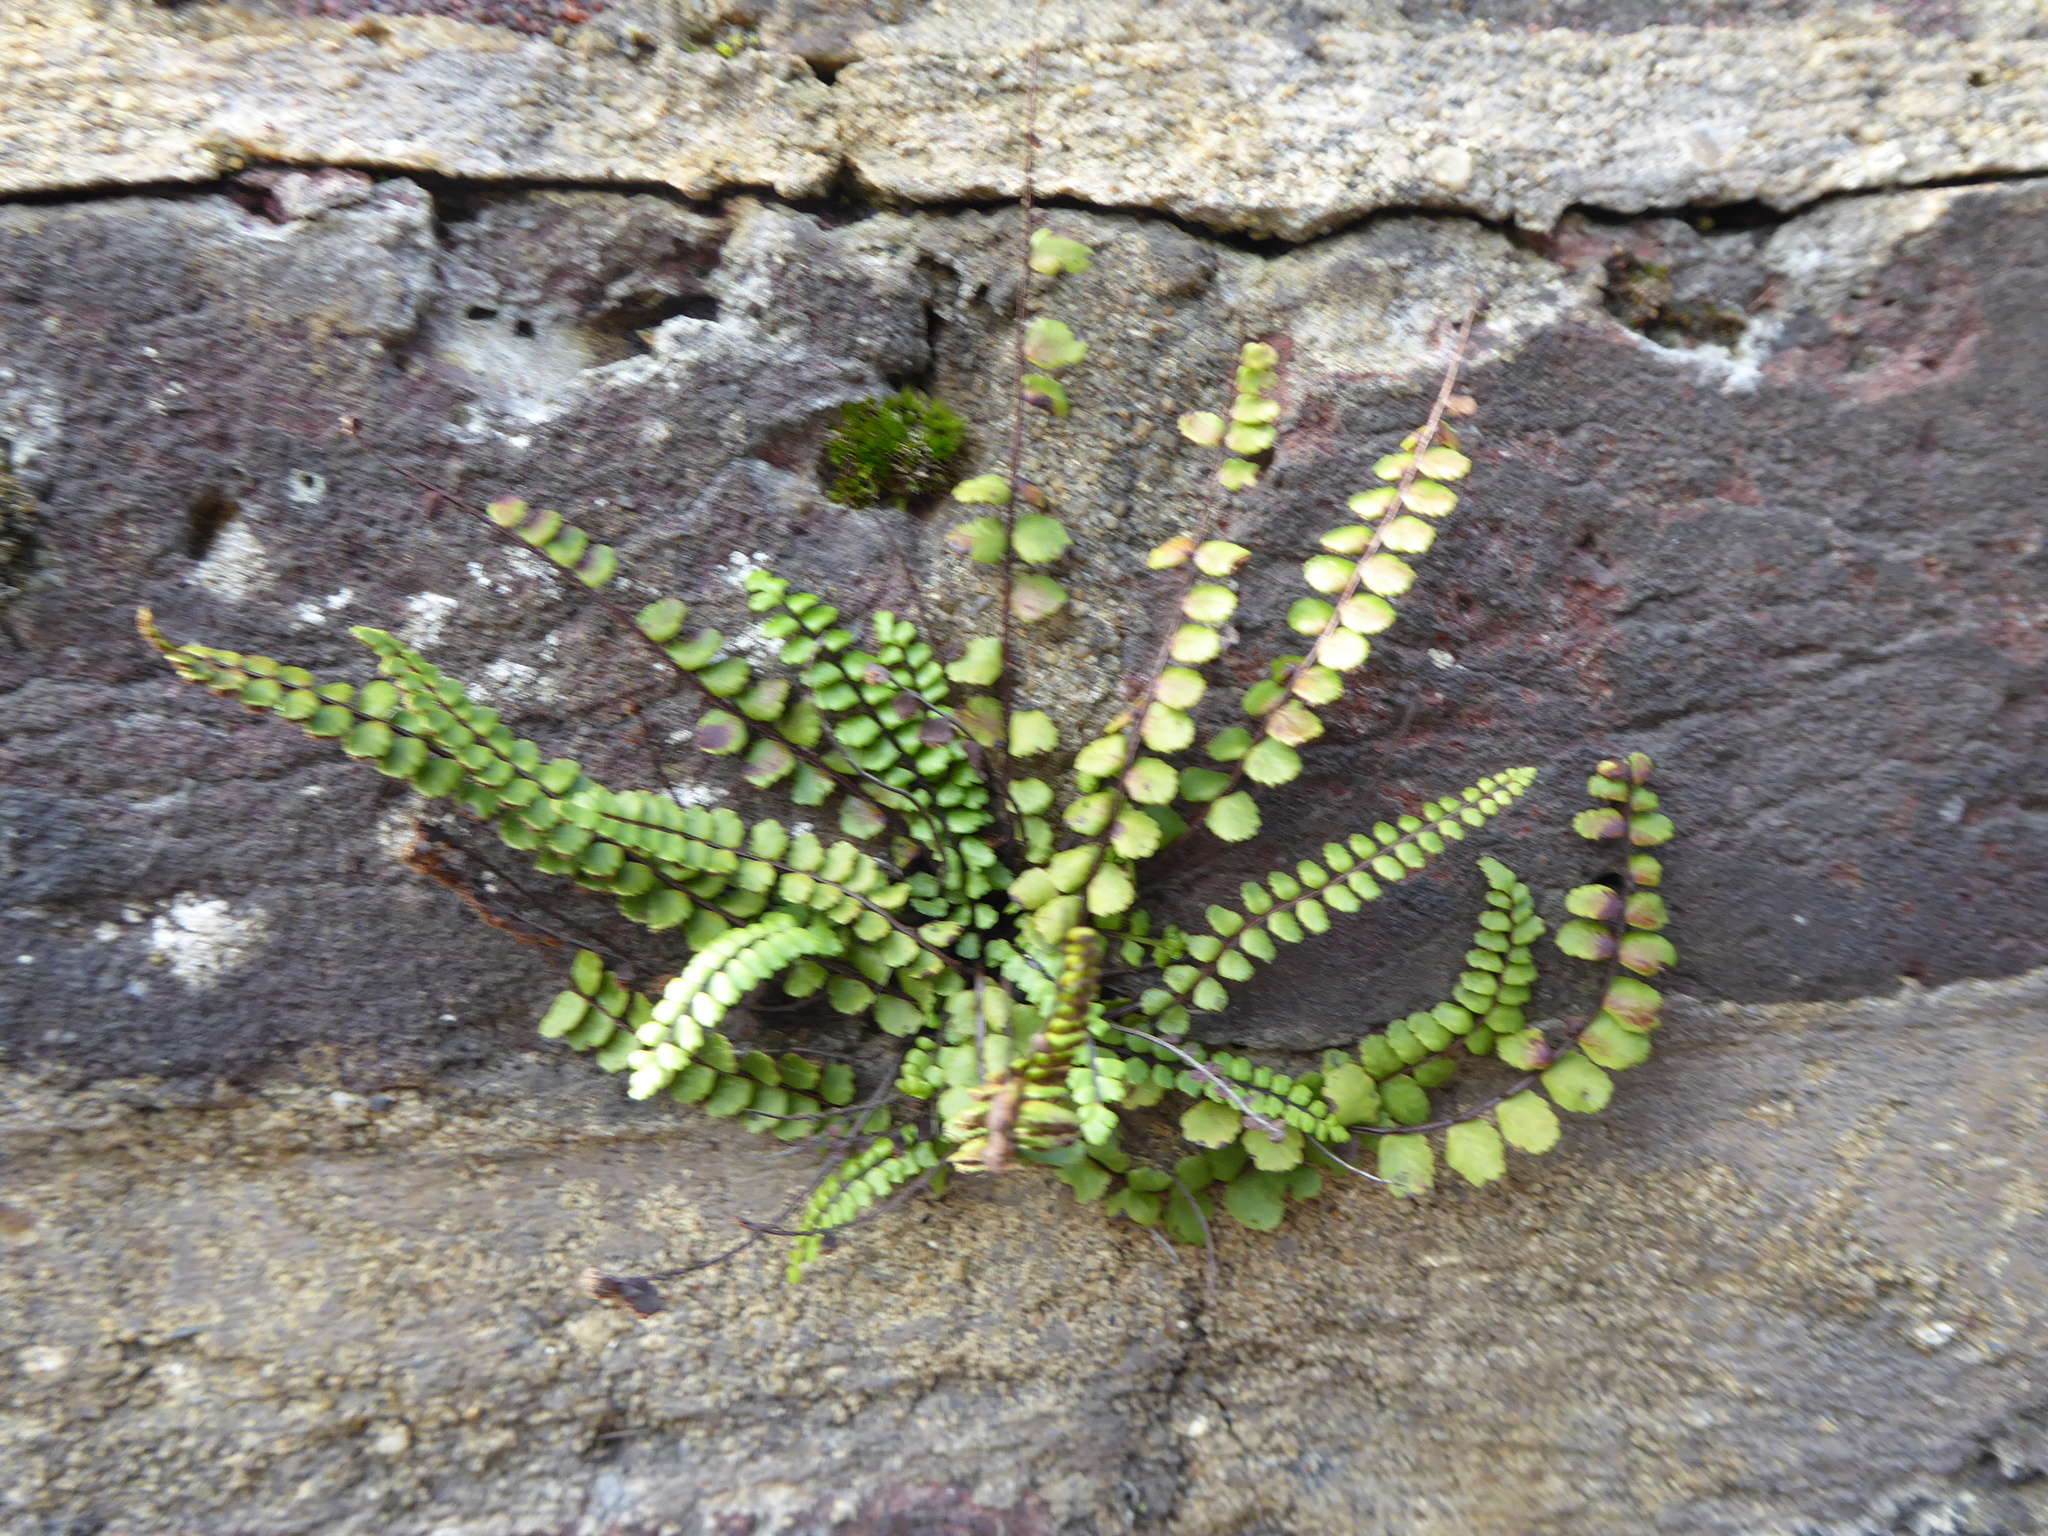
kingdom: Plantae
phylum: Tracheophyta
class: Polypodiopsida
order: Polypodiales
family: Aspleniaceae
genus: Asplenium
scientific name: Asplenium trichomanes
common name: Maidenhair spleenwort
